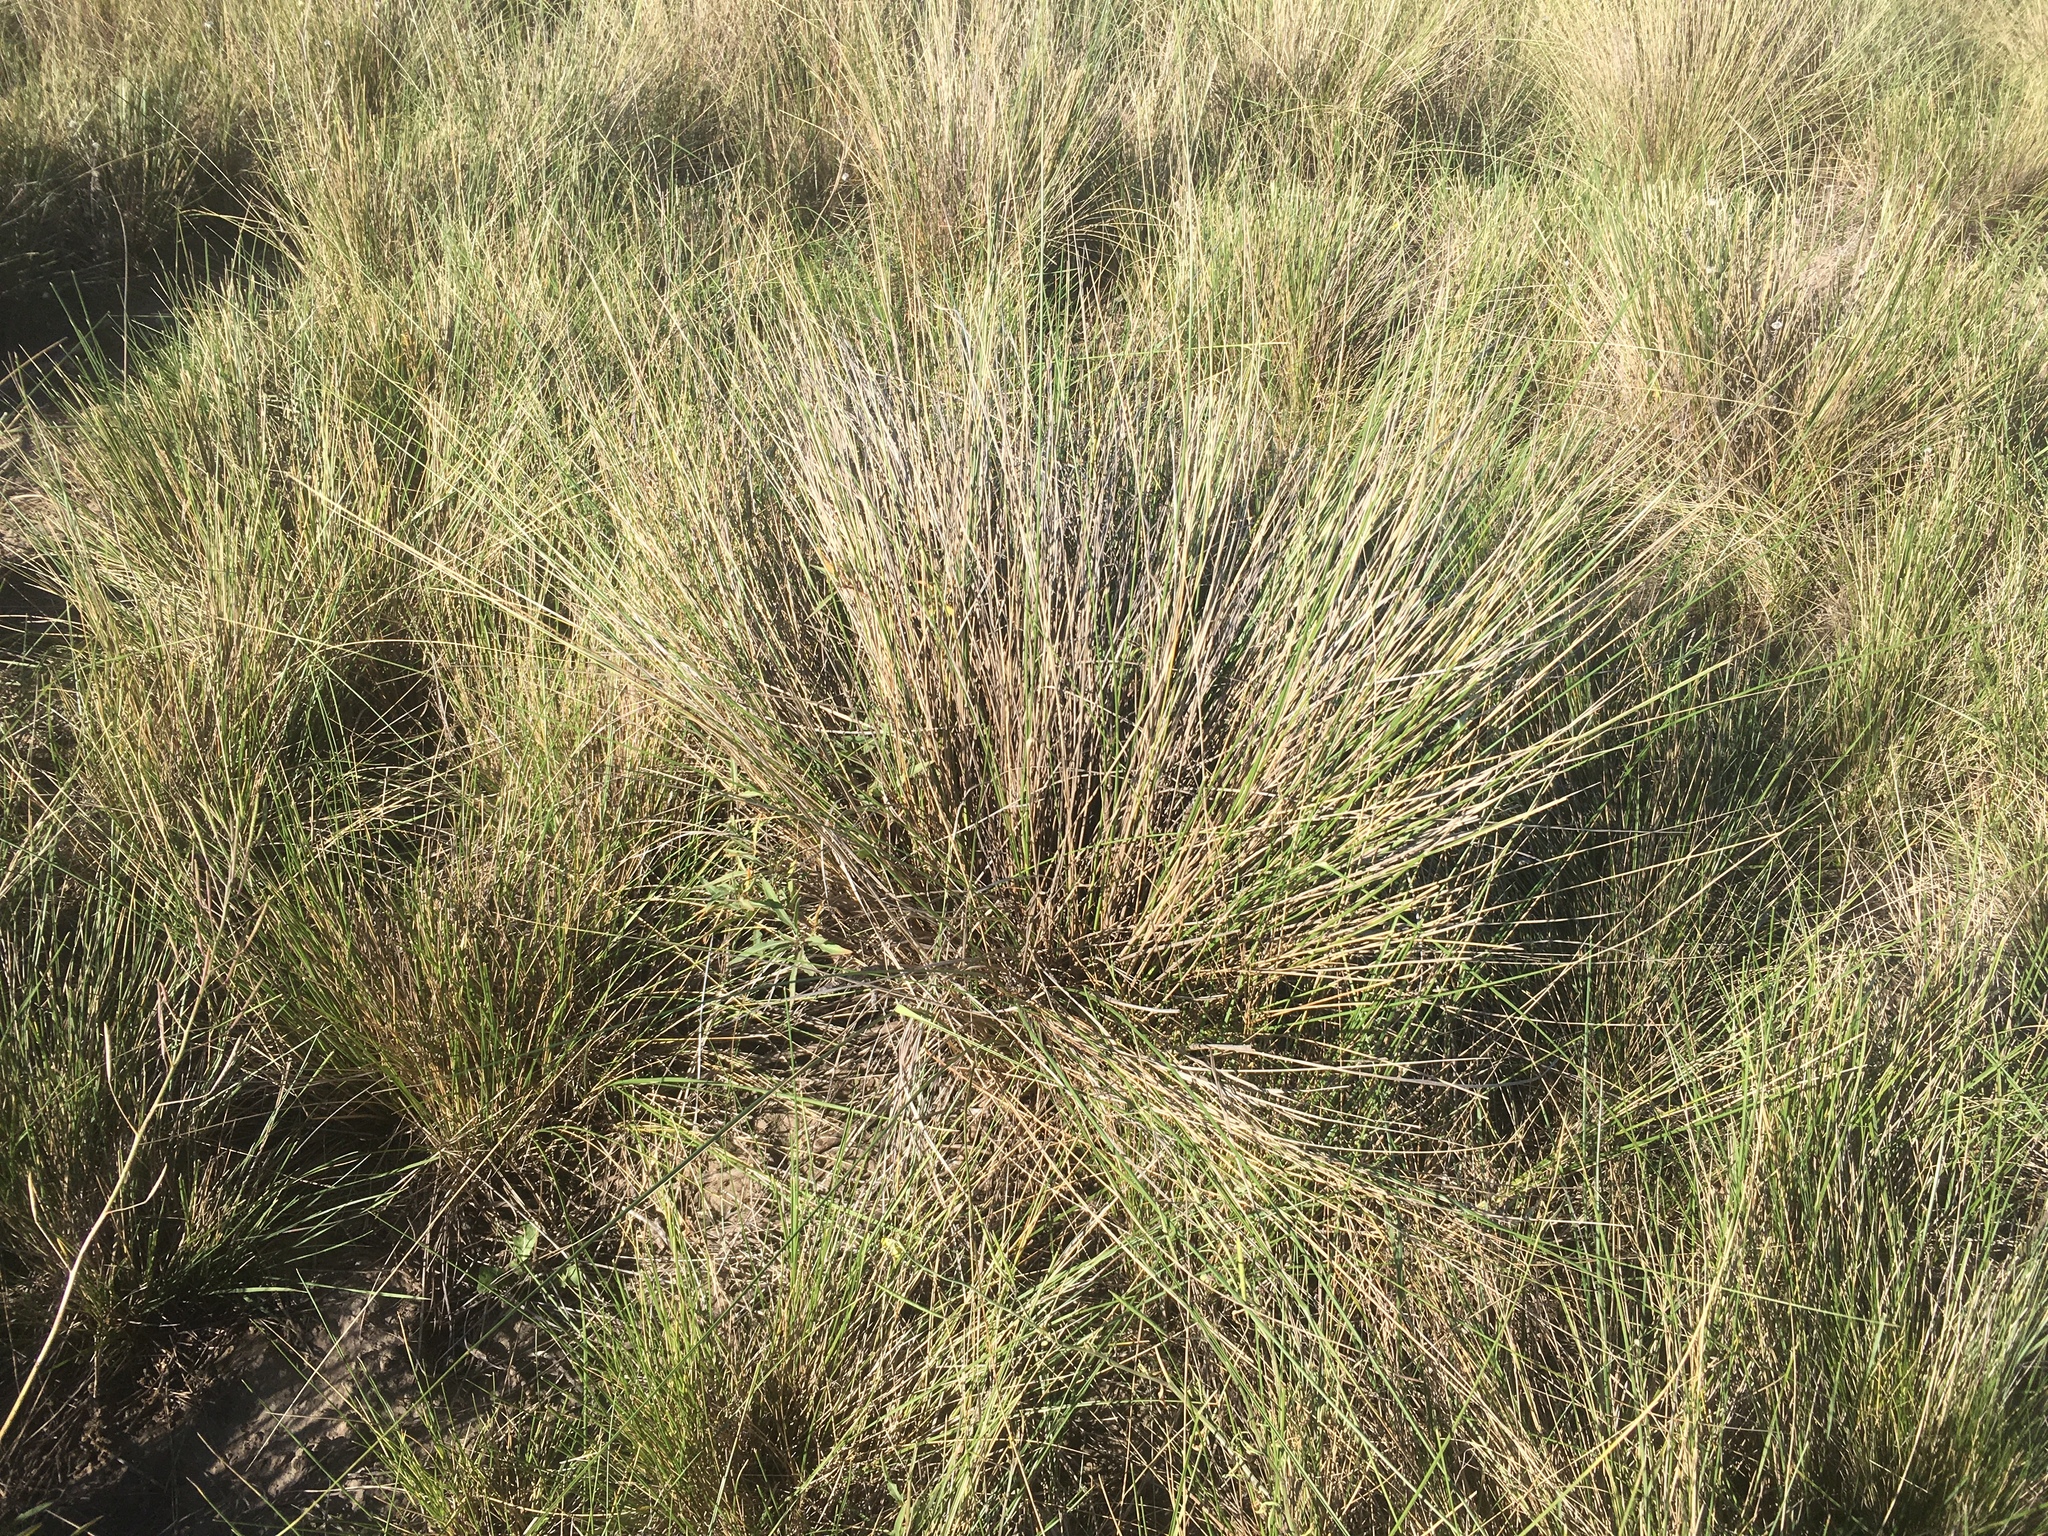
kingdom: Plantae
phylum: Tracheophyta
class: Liliopsida
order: Poales
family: Poaceae
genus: Amelichloa
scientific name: Amelichloa ambigua
